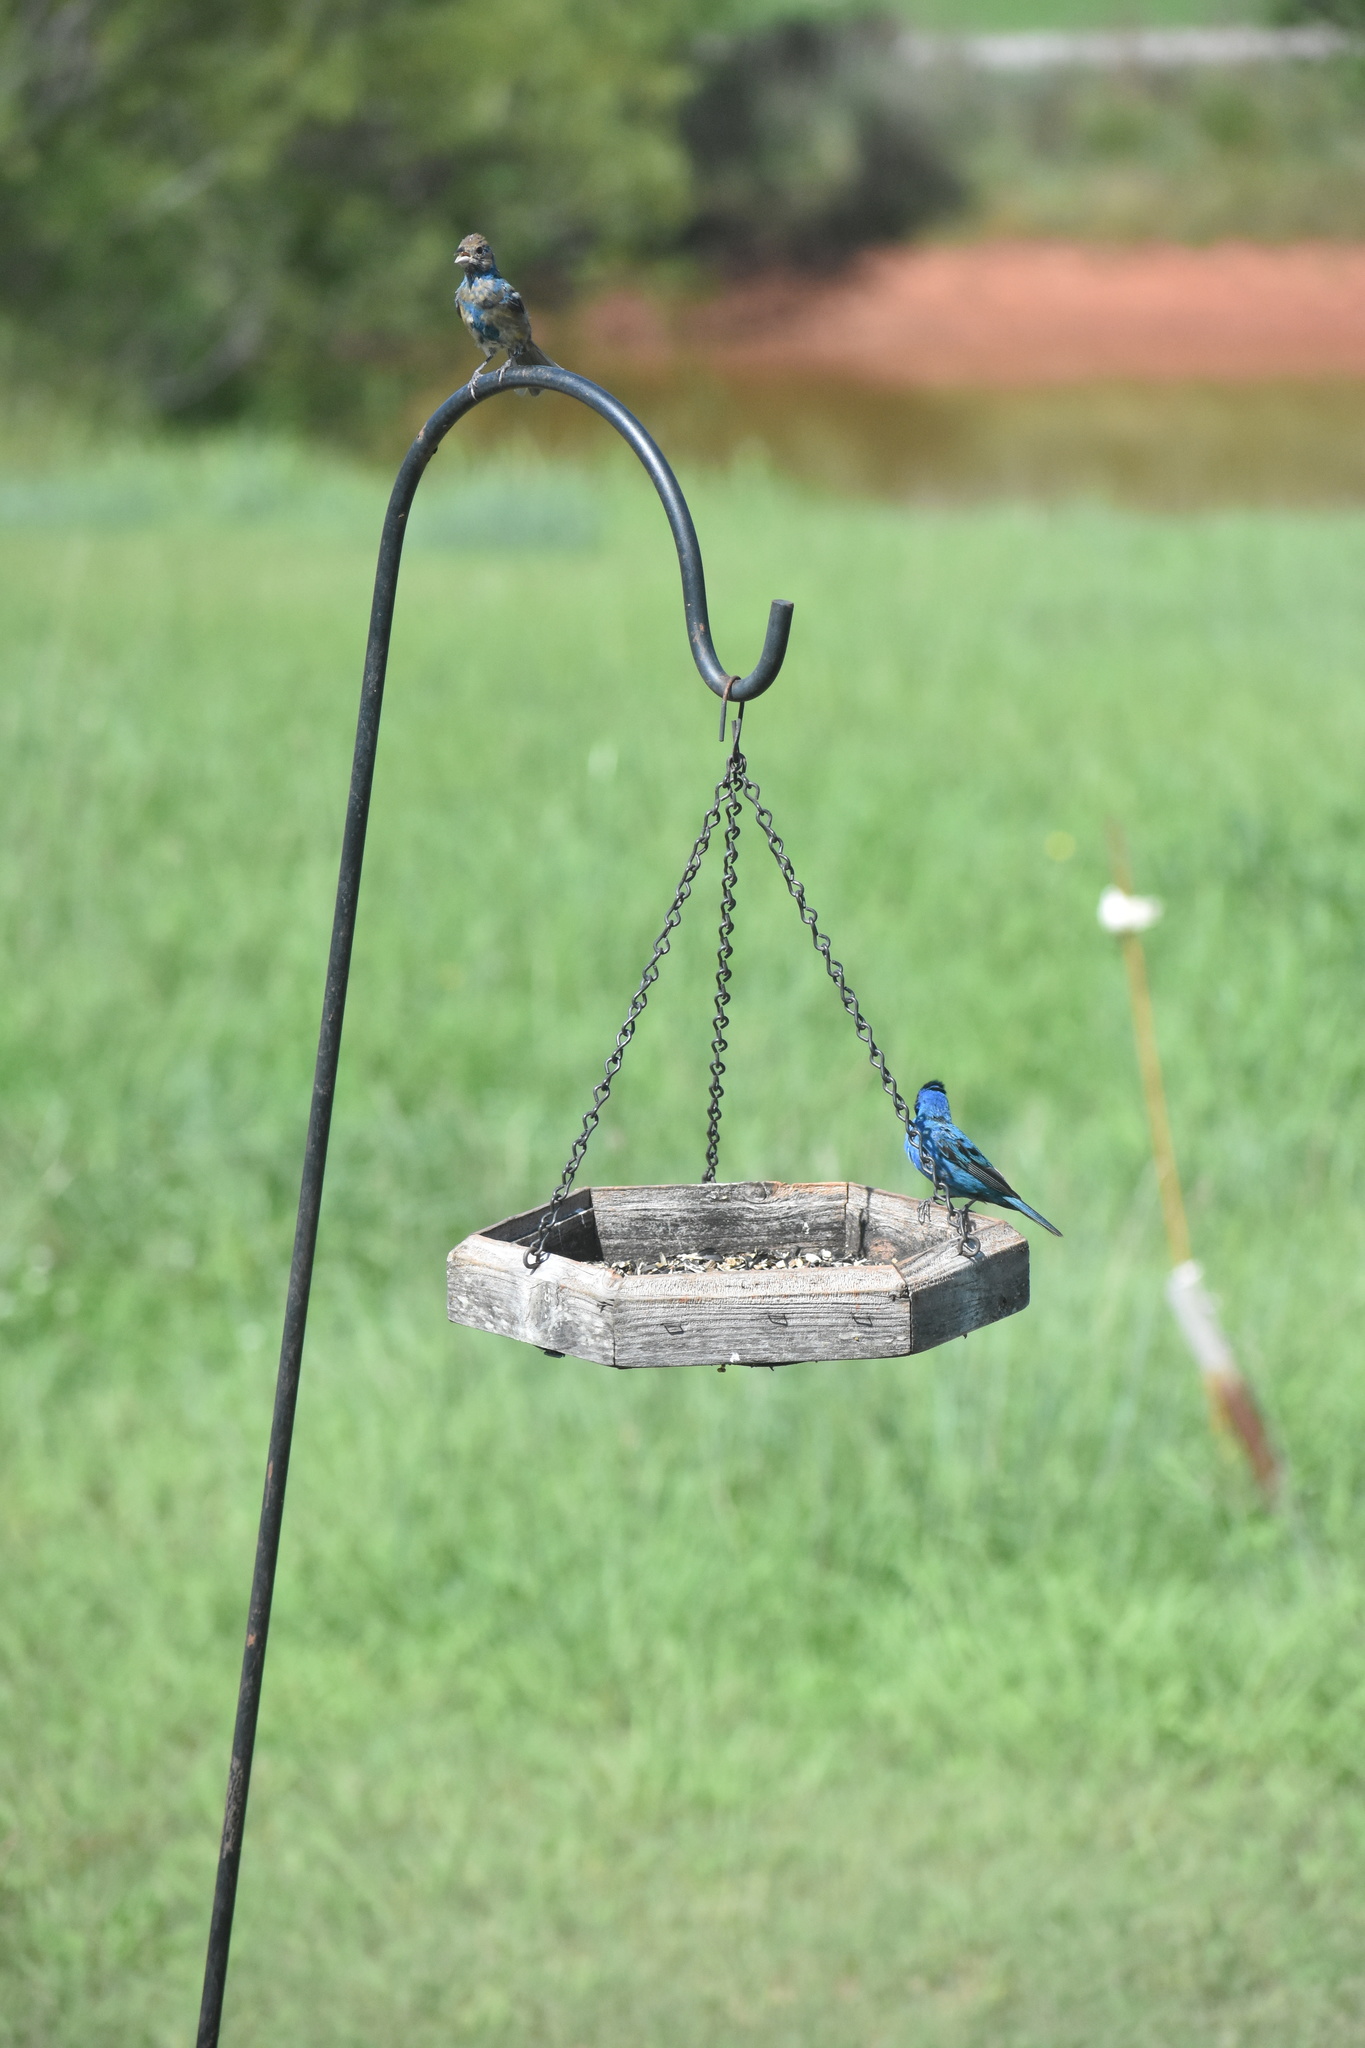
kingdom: Animalia
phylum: Chordata
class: Aves
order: Passeriformes
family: Cardinalidae
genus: Passerina
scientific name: Passerina cyanea
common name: Indigo bunting
